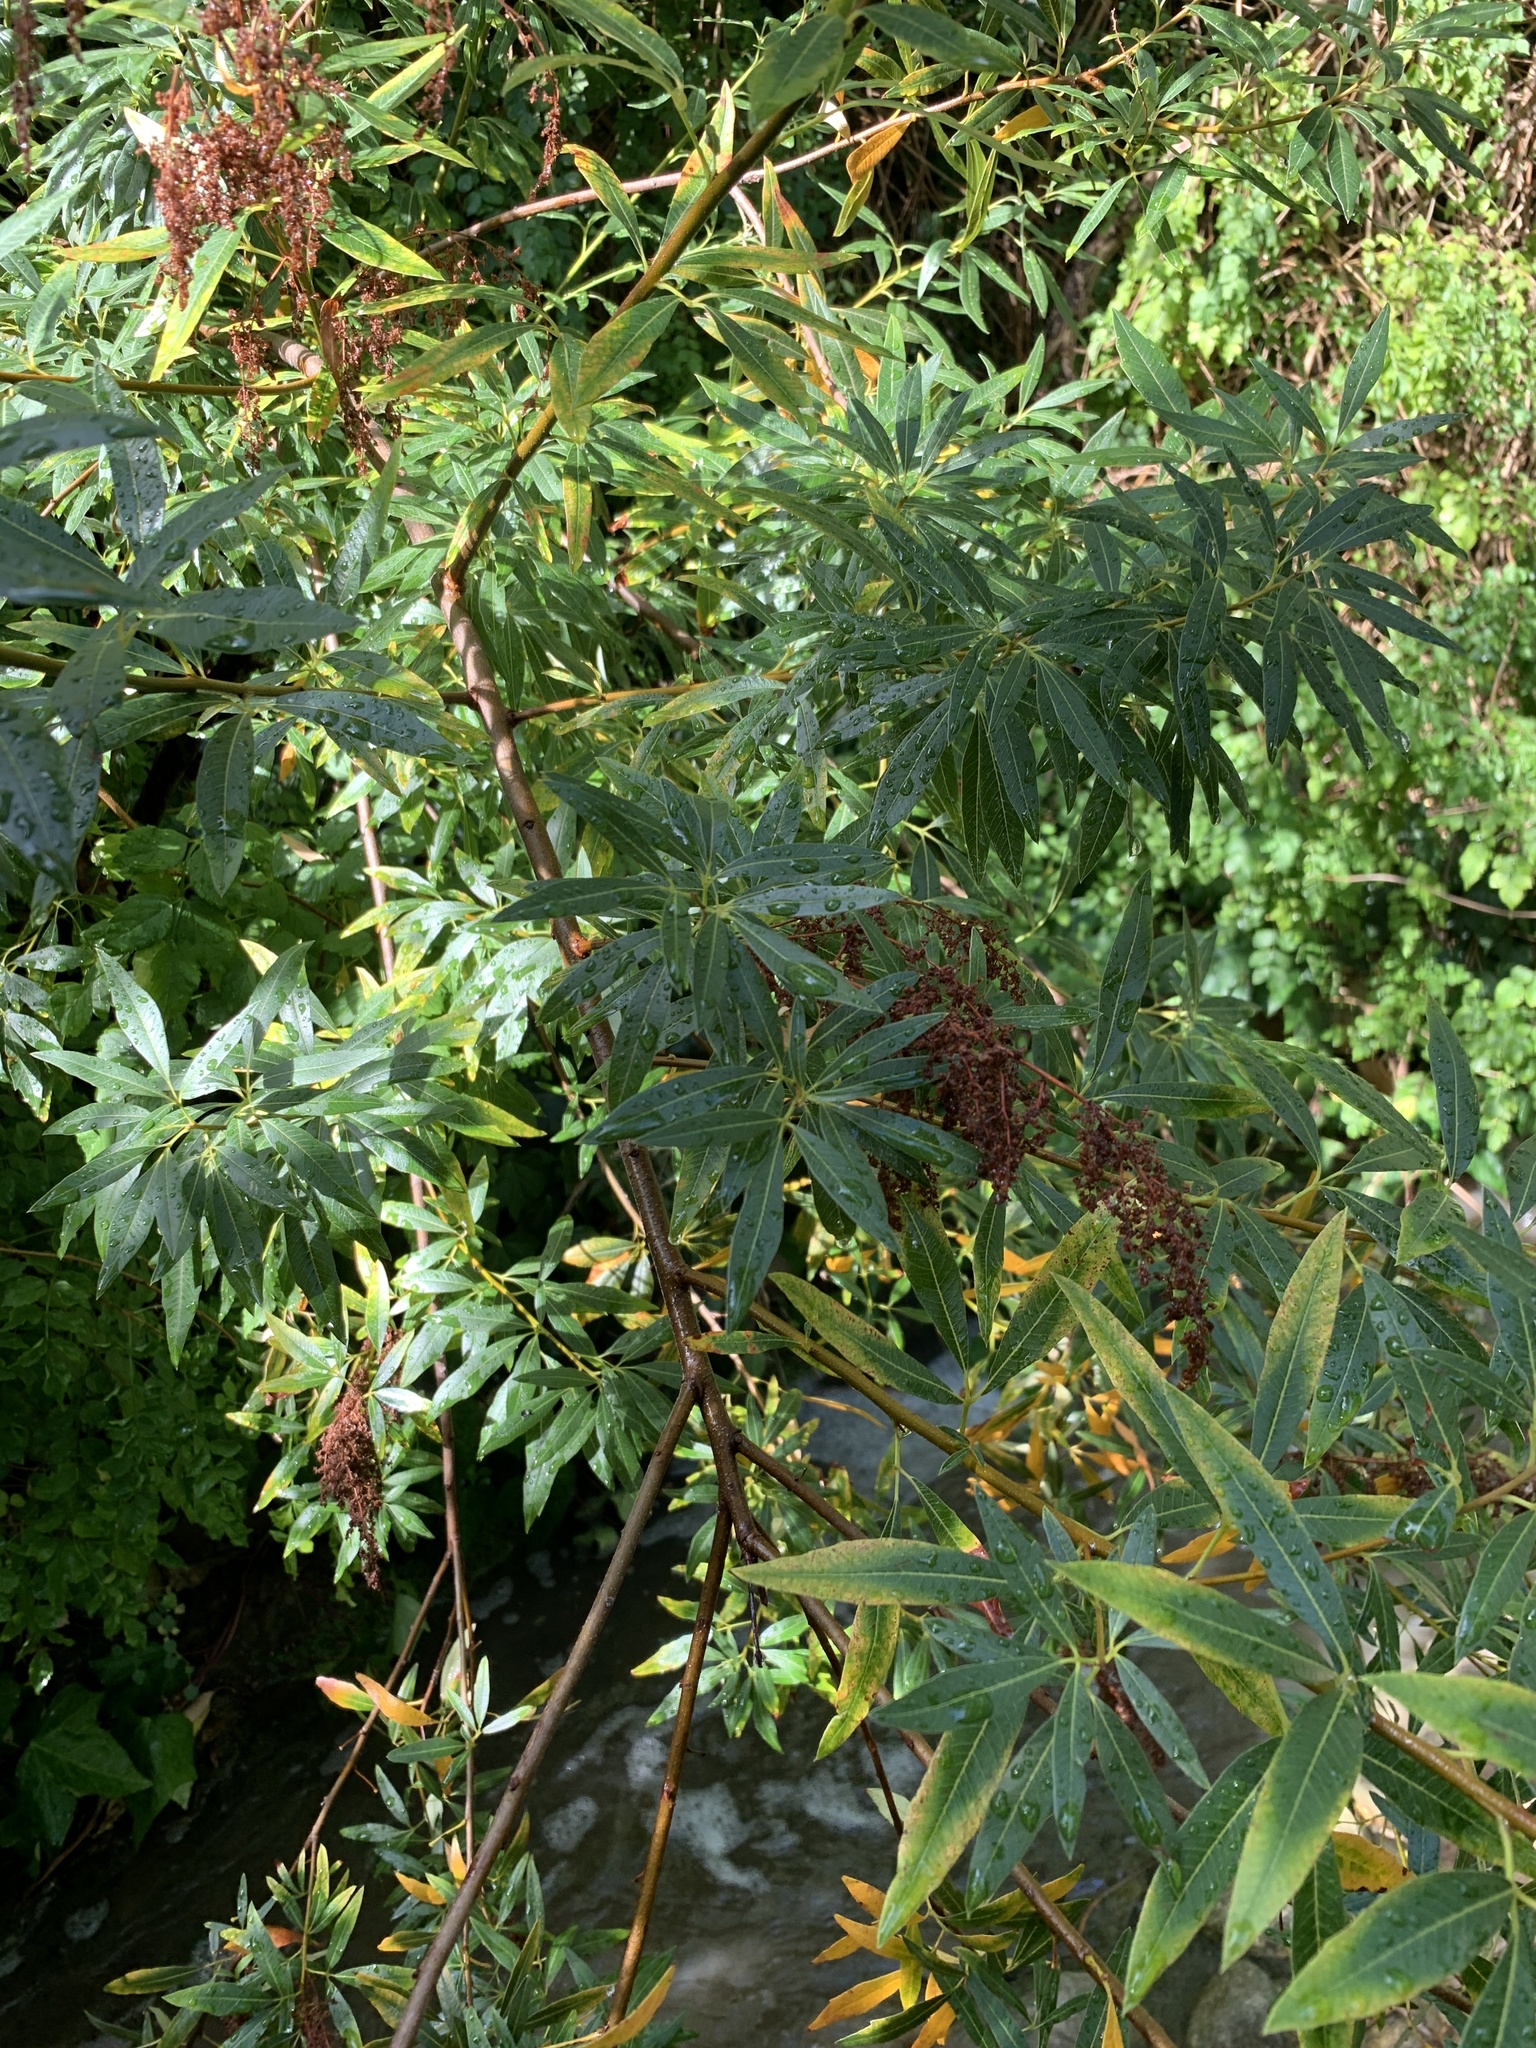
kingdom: Plantae
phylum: Tracheophyta
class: Magnoliopsida
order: Sapindales
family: Anacardiaceae
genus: Searsia
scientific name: Searsia angustifolia
